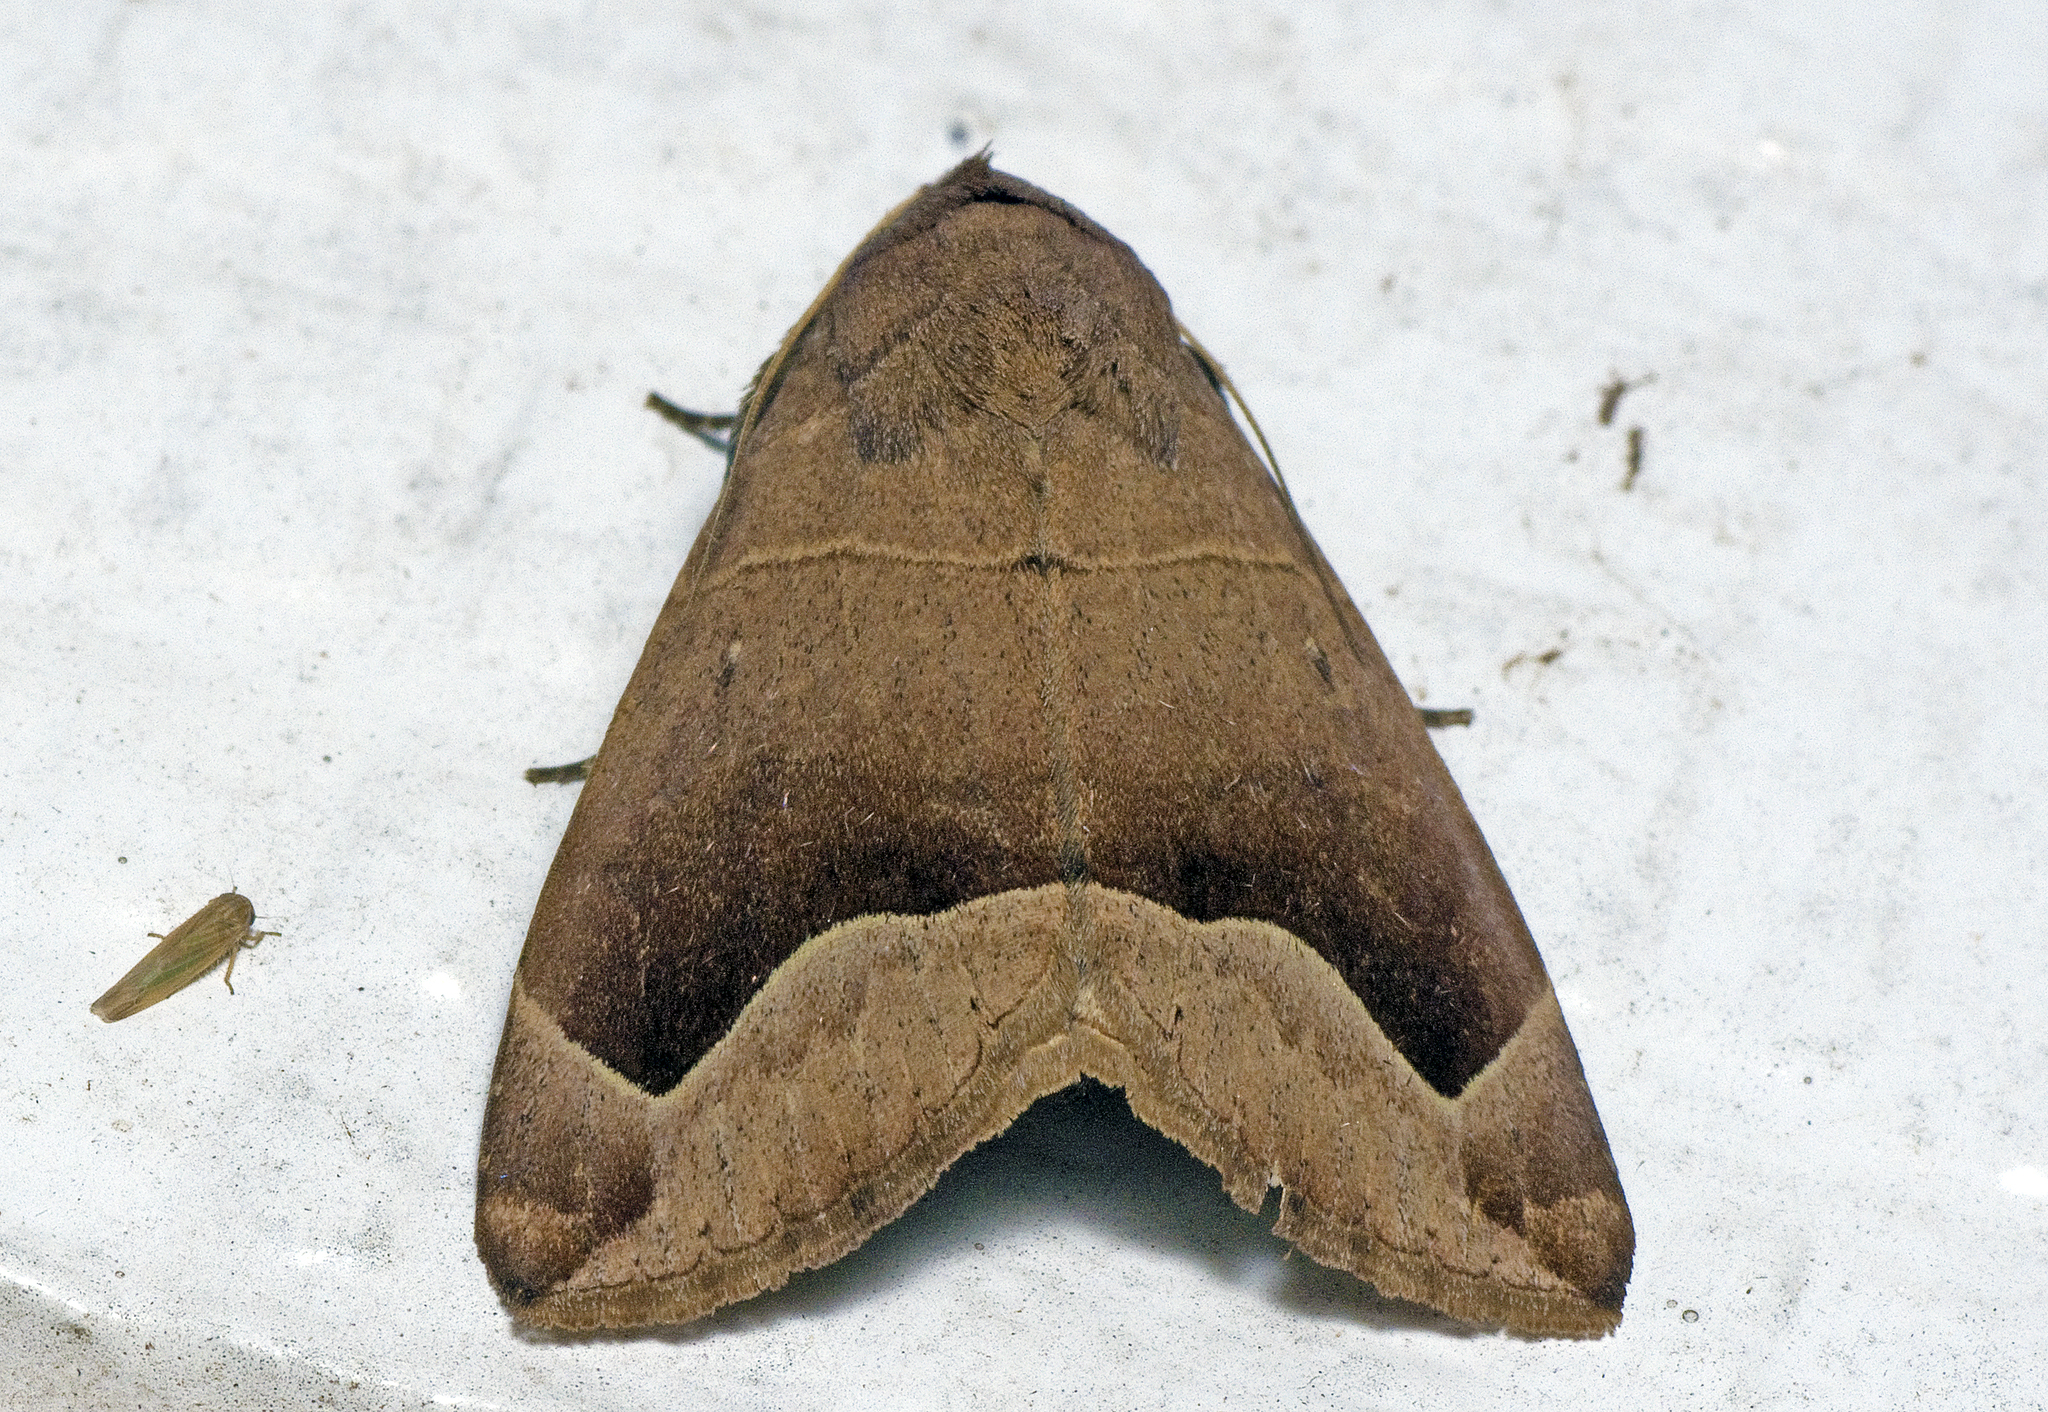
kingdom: Animalia
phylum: Arthropoda
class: Insecta
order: Lepidoptera
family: Erebidae
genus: Dysgonia
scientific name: Dysgonia monogona
